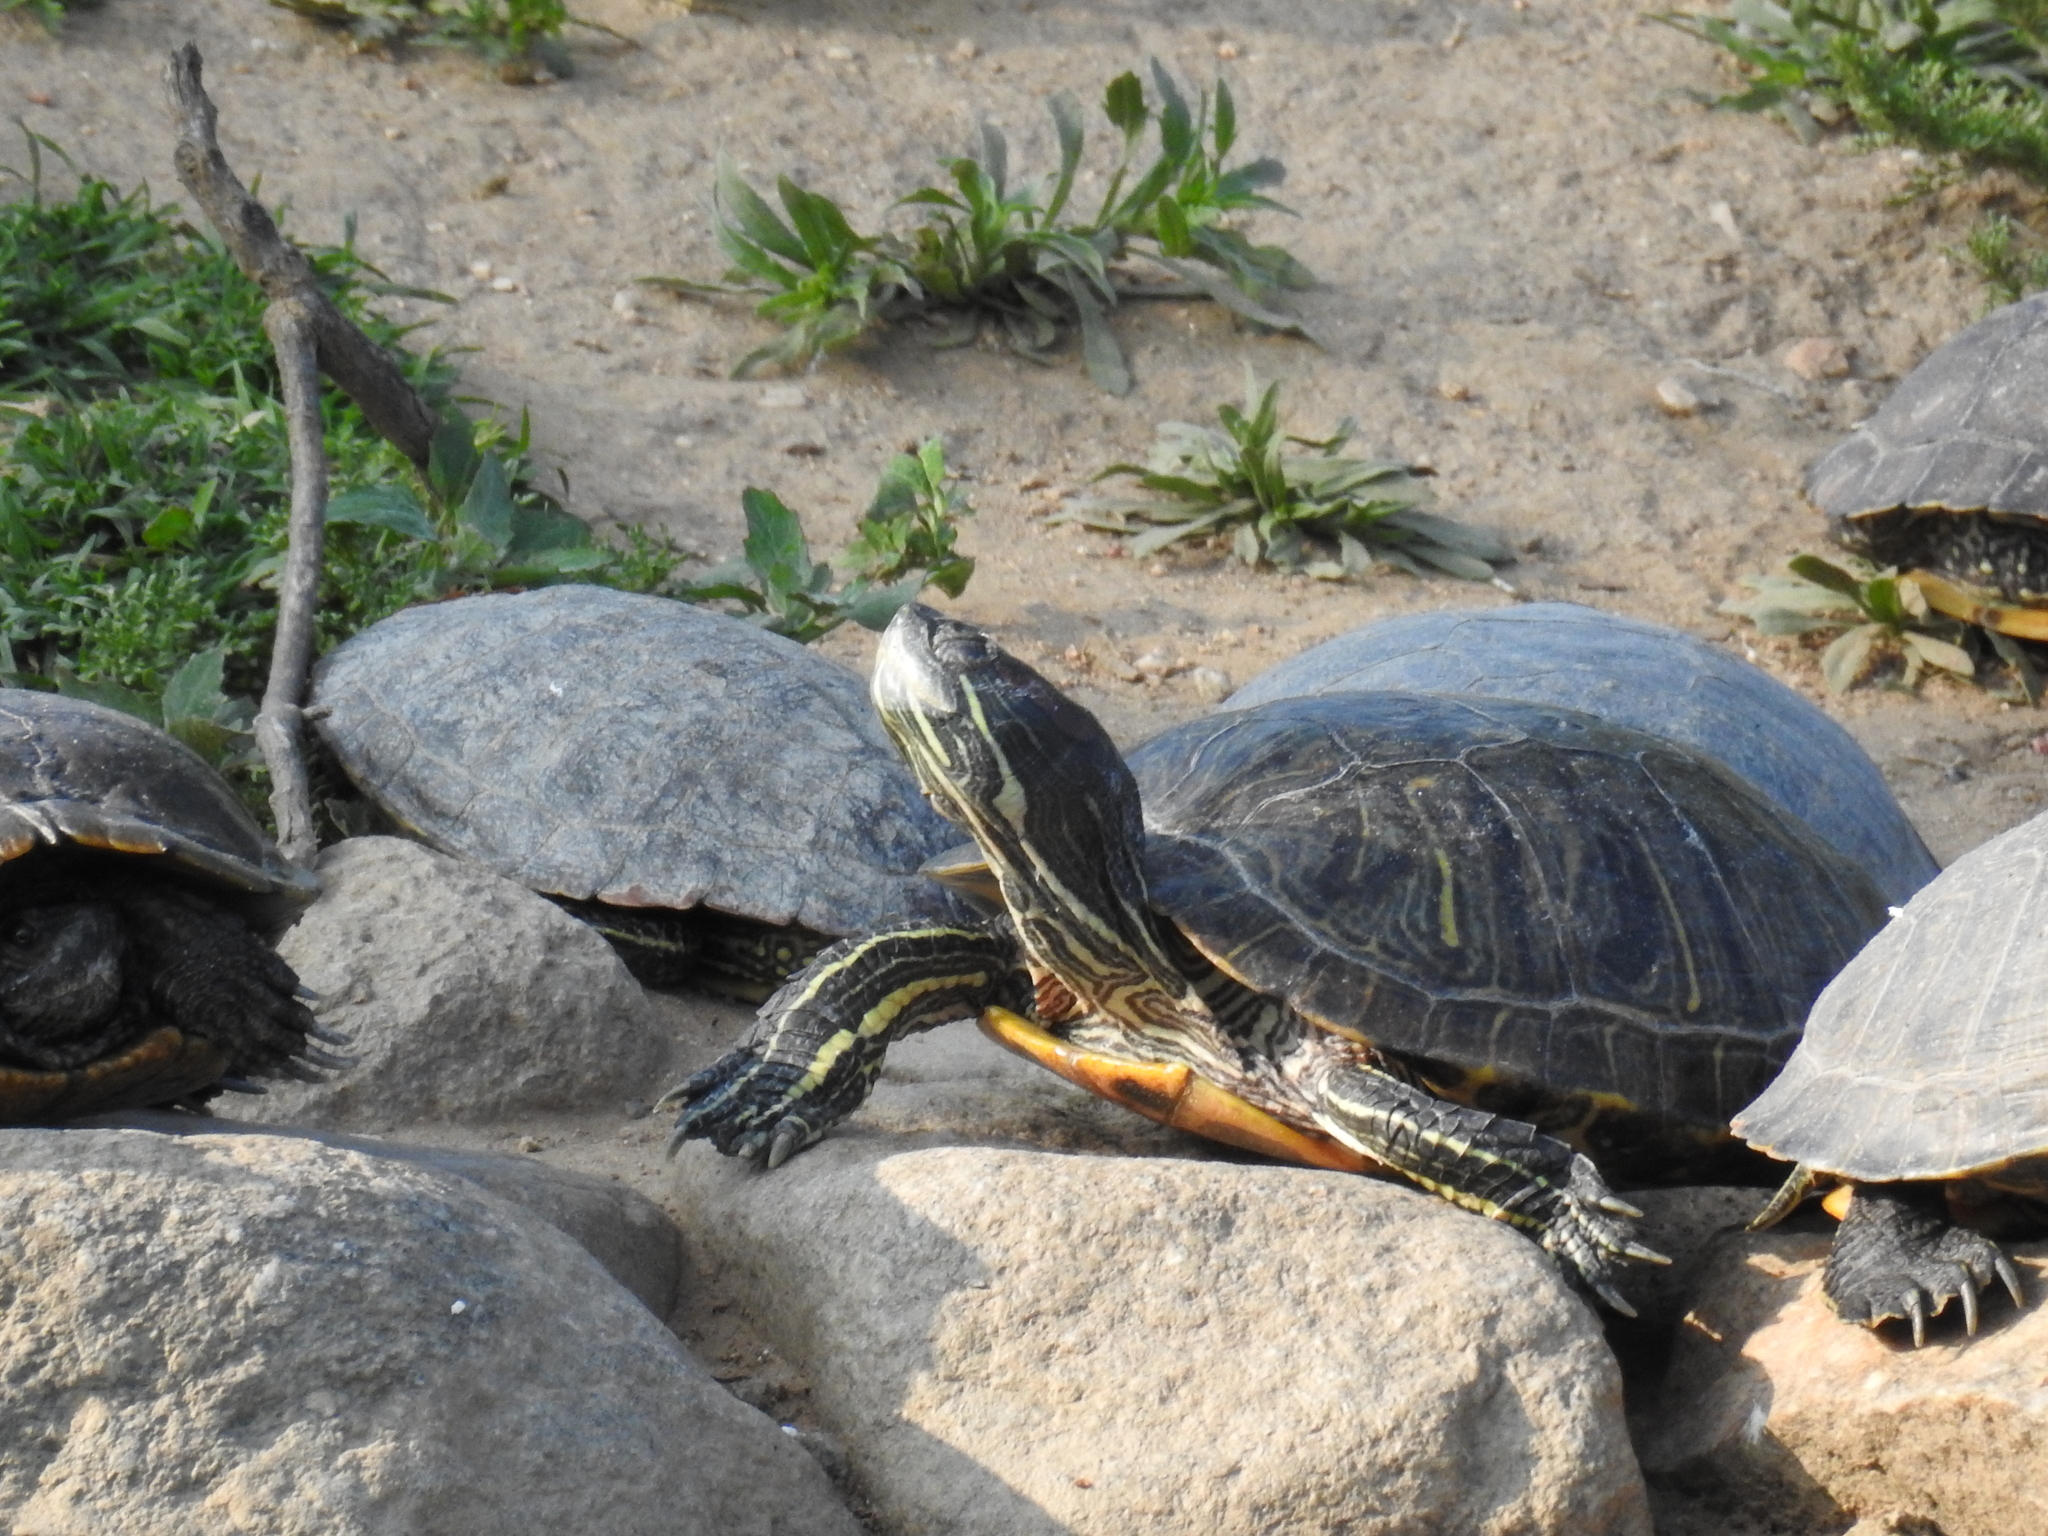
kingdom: Animalia
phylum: Chordata
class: Testudines
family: Emydidae
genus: Trachemys
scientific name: Trachemys scripta
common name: Slider
